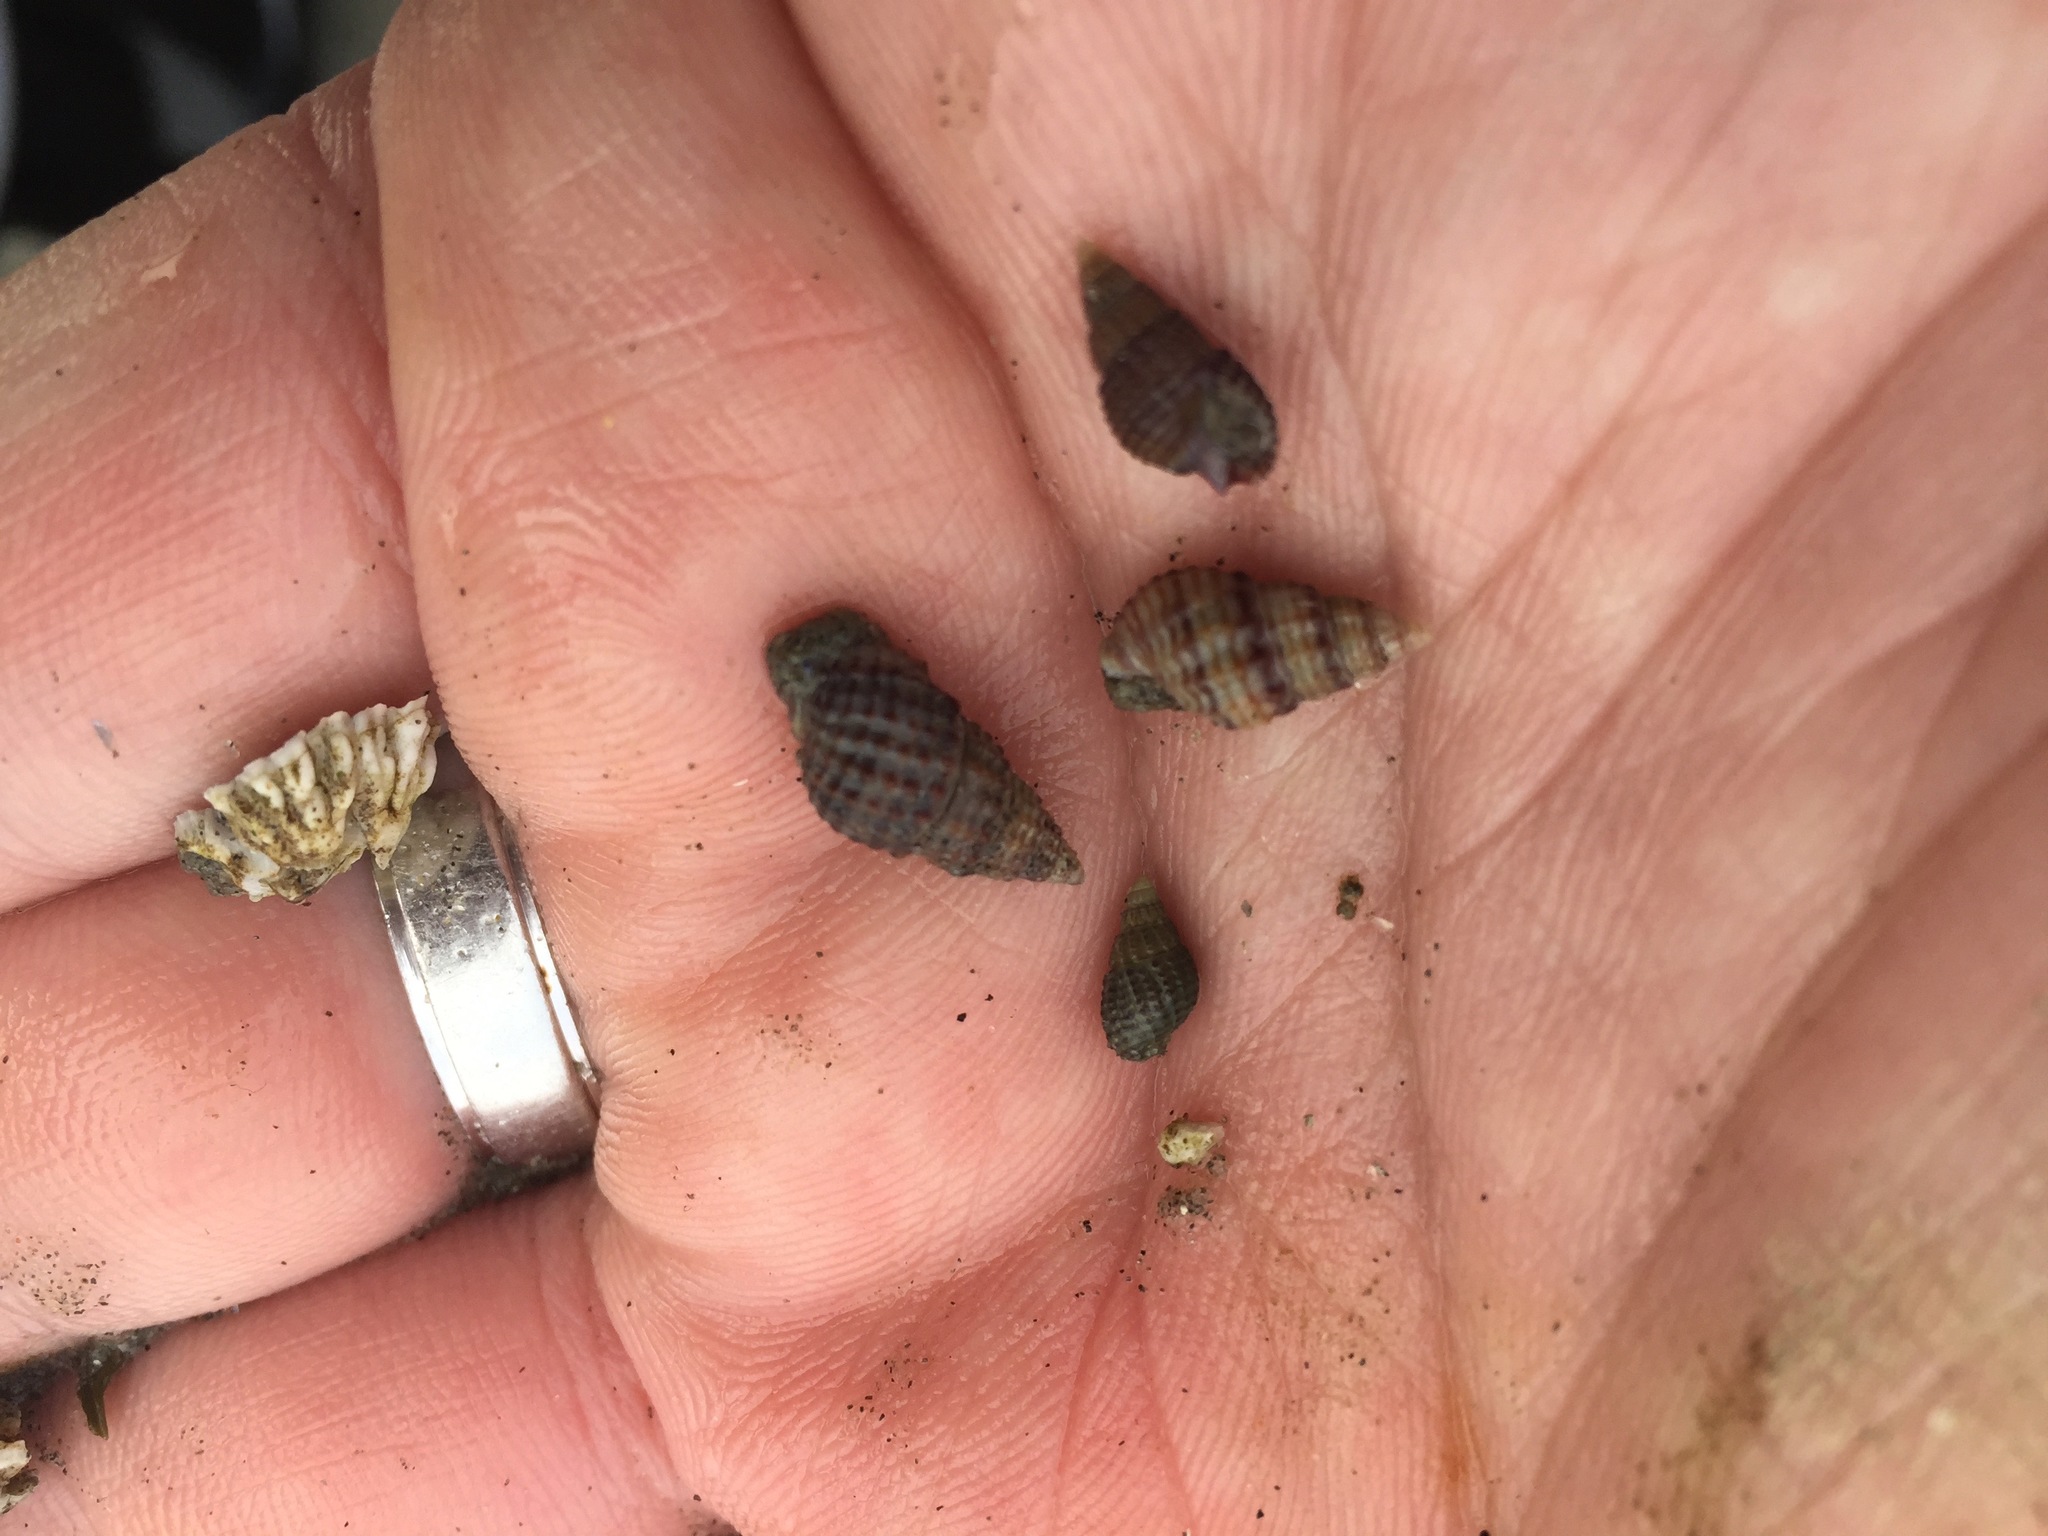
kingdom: Animalia
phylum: Mollusca
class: Gastropoda
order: Neogastropoda
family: Nassariidae
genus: Ilyanassa
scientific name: Ilyanassa trivittata
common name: Three-line mudsnail
